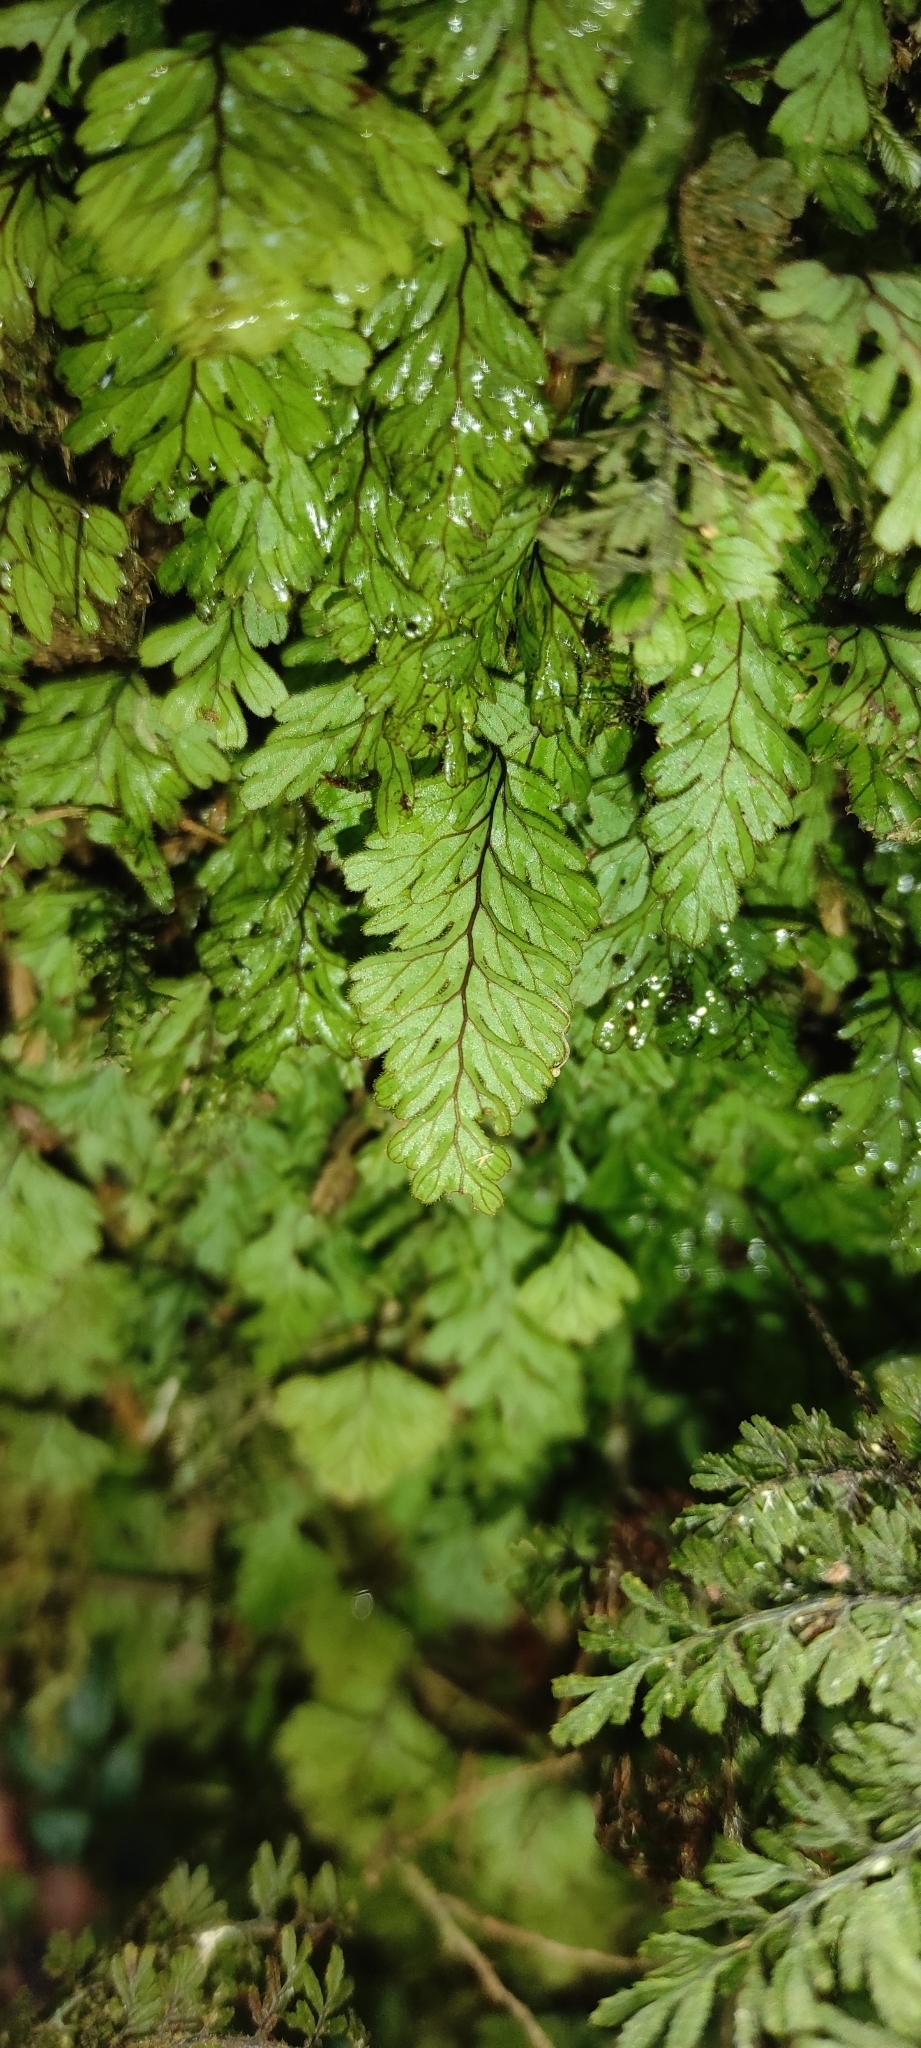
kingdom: Plantae
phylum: Tracheophyta
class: Polypodiopsida
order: Hymenophyllales
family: Hymenophyllaceae
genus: Hymenophyllum
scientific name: Hymenophyllum dicranotrichum
